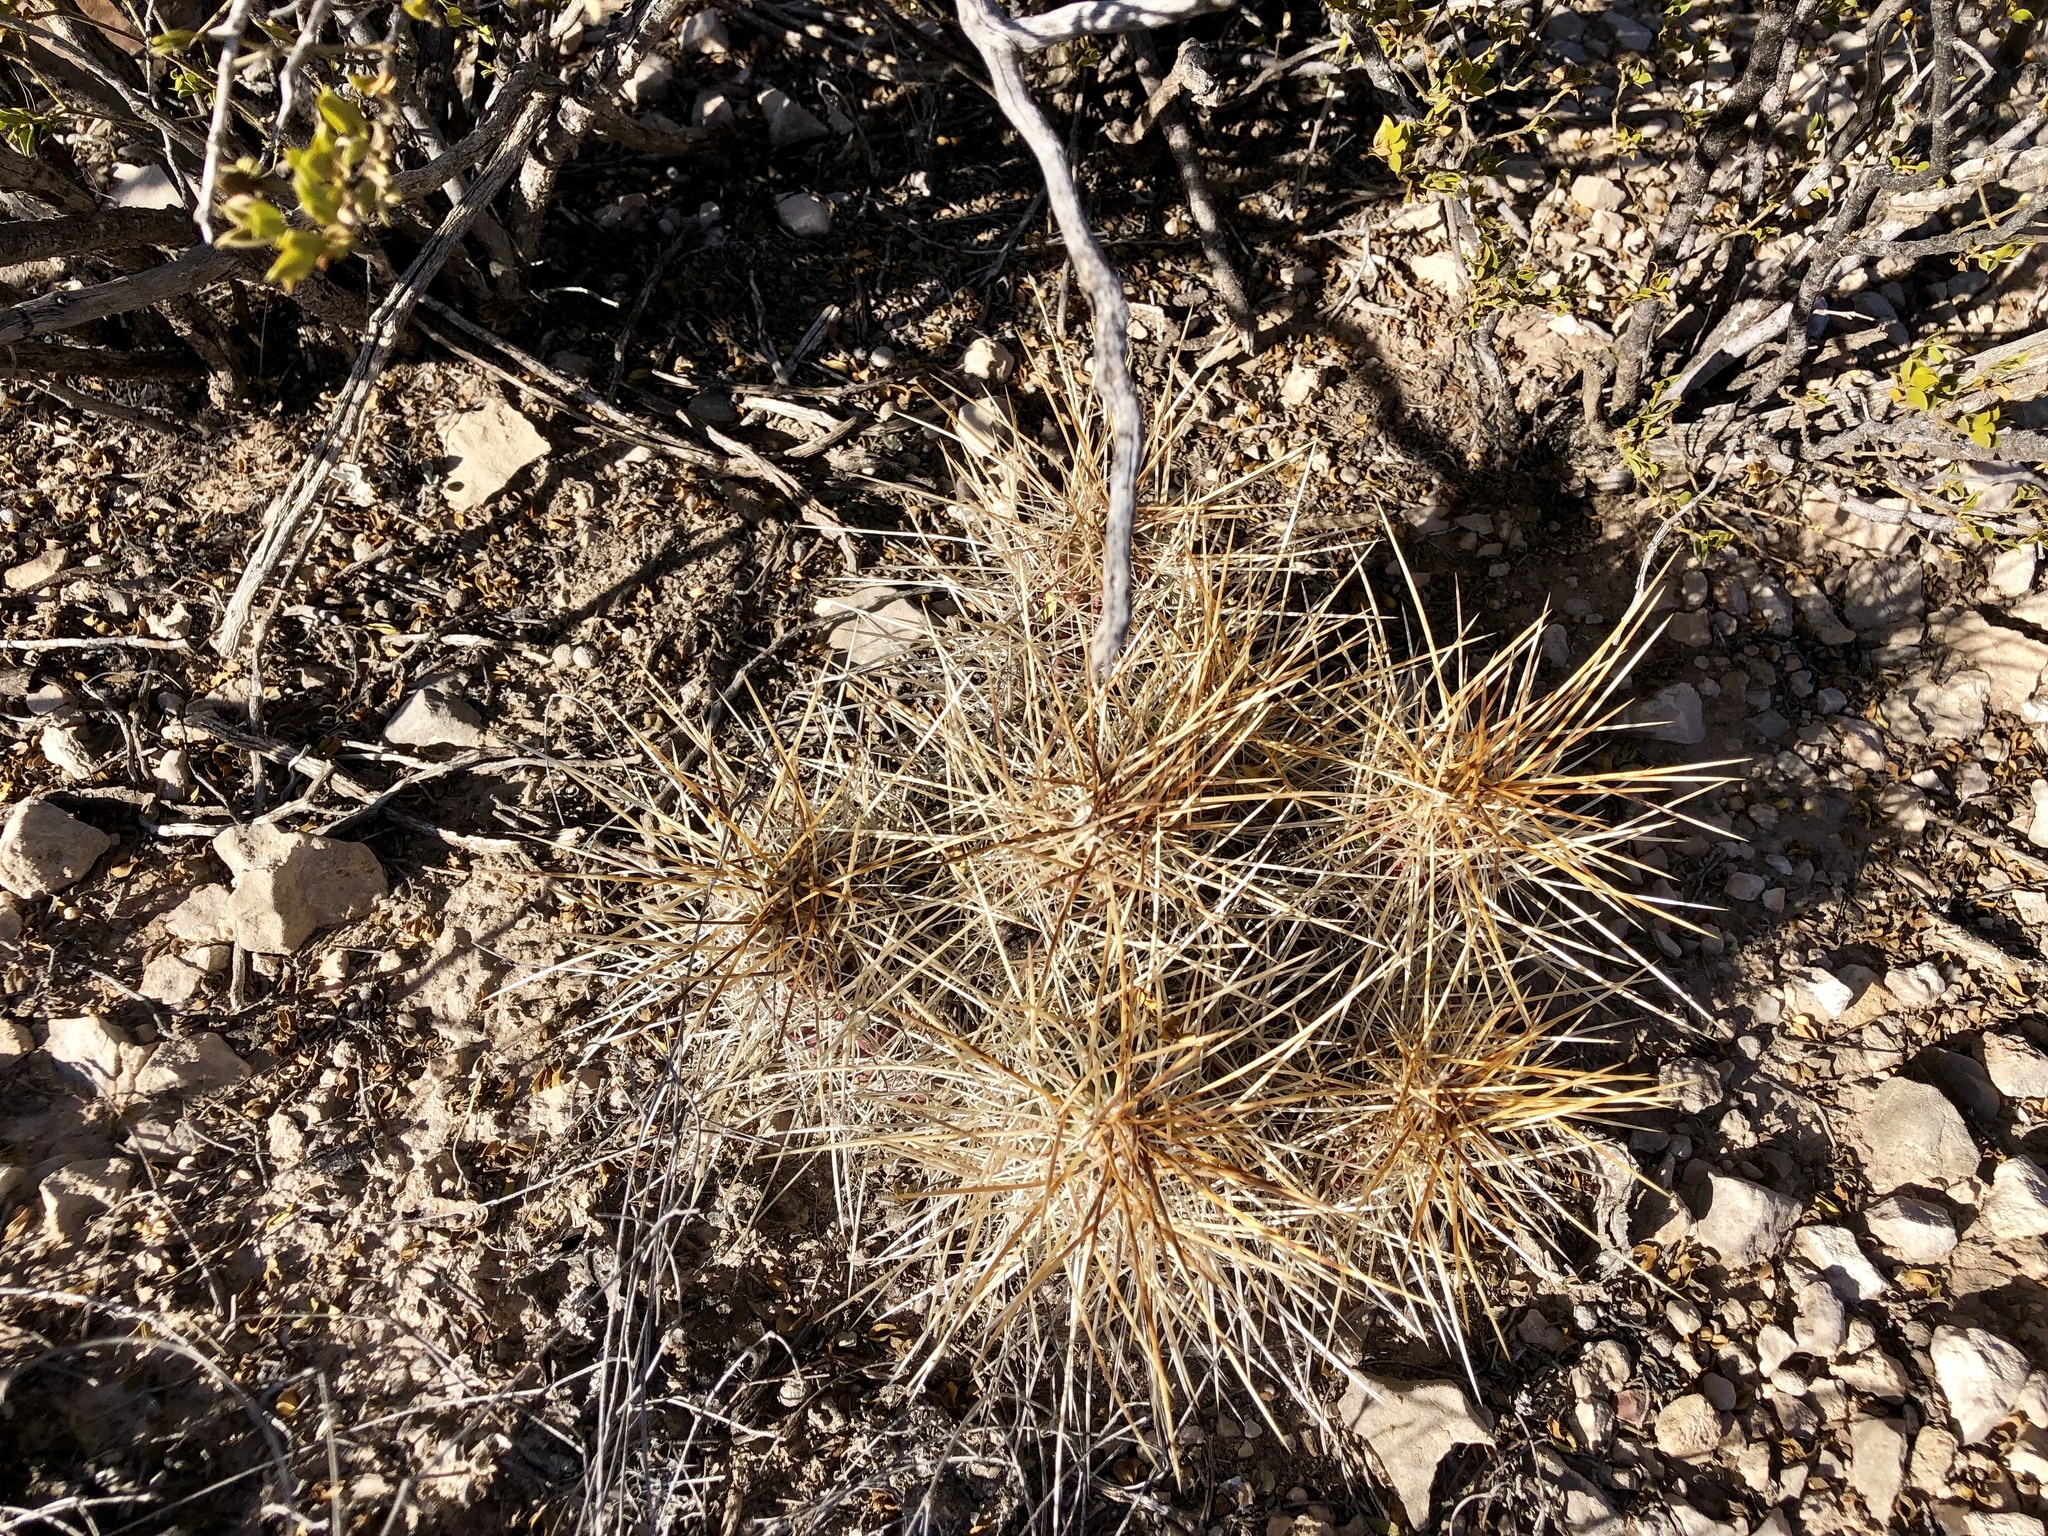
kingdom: Plantae
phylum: Tracheophyta
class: Magnoliopsida
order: Caryophyllales
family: Cactaceae
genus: Echinocereus
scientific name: Echinocereus stramineus
